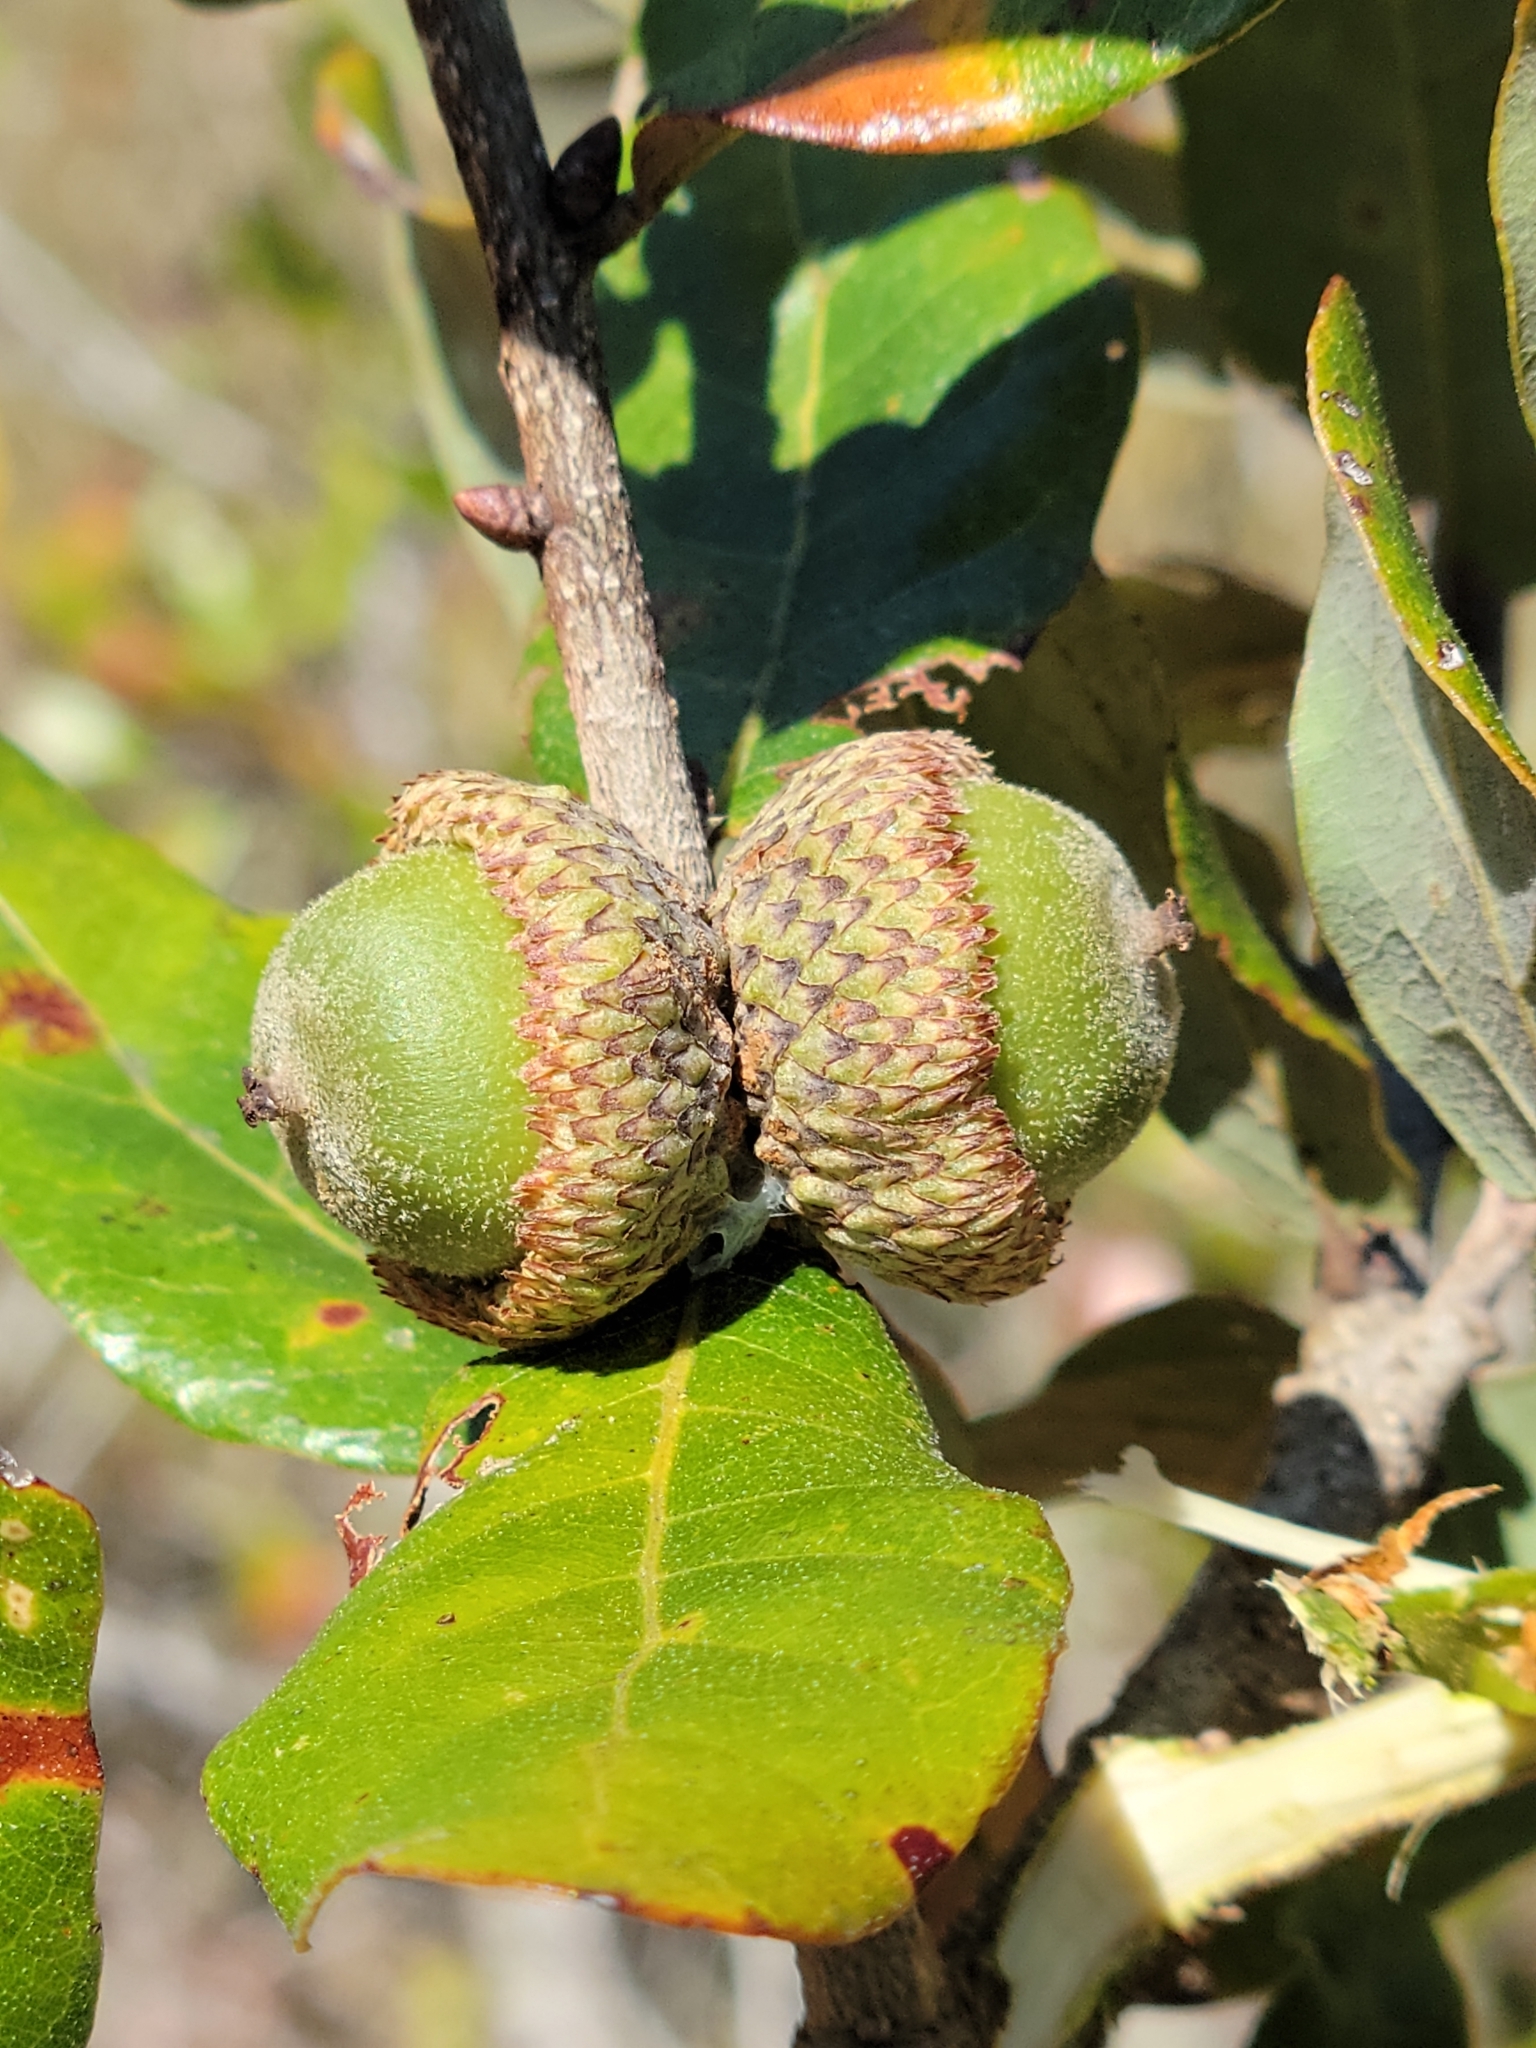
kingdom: Plantae
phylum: Tracheophyta
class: Magnoliopsida
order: Fagales
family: Fagaceae
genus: Quercus
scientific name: Quercus chapmanii
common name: Chapman oak
